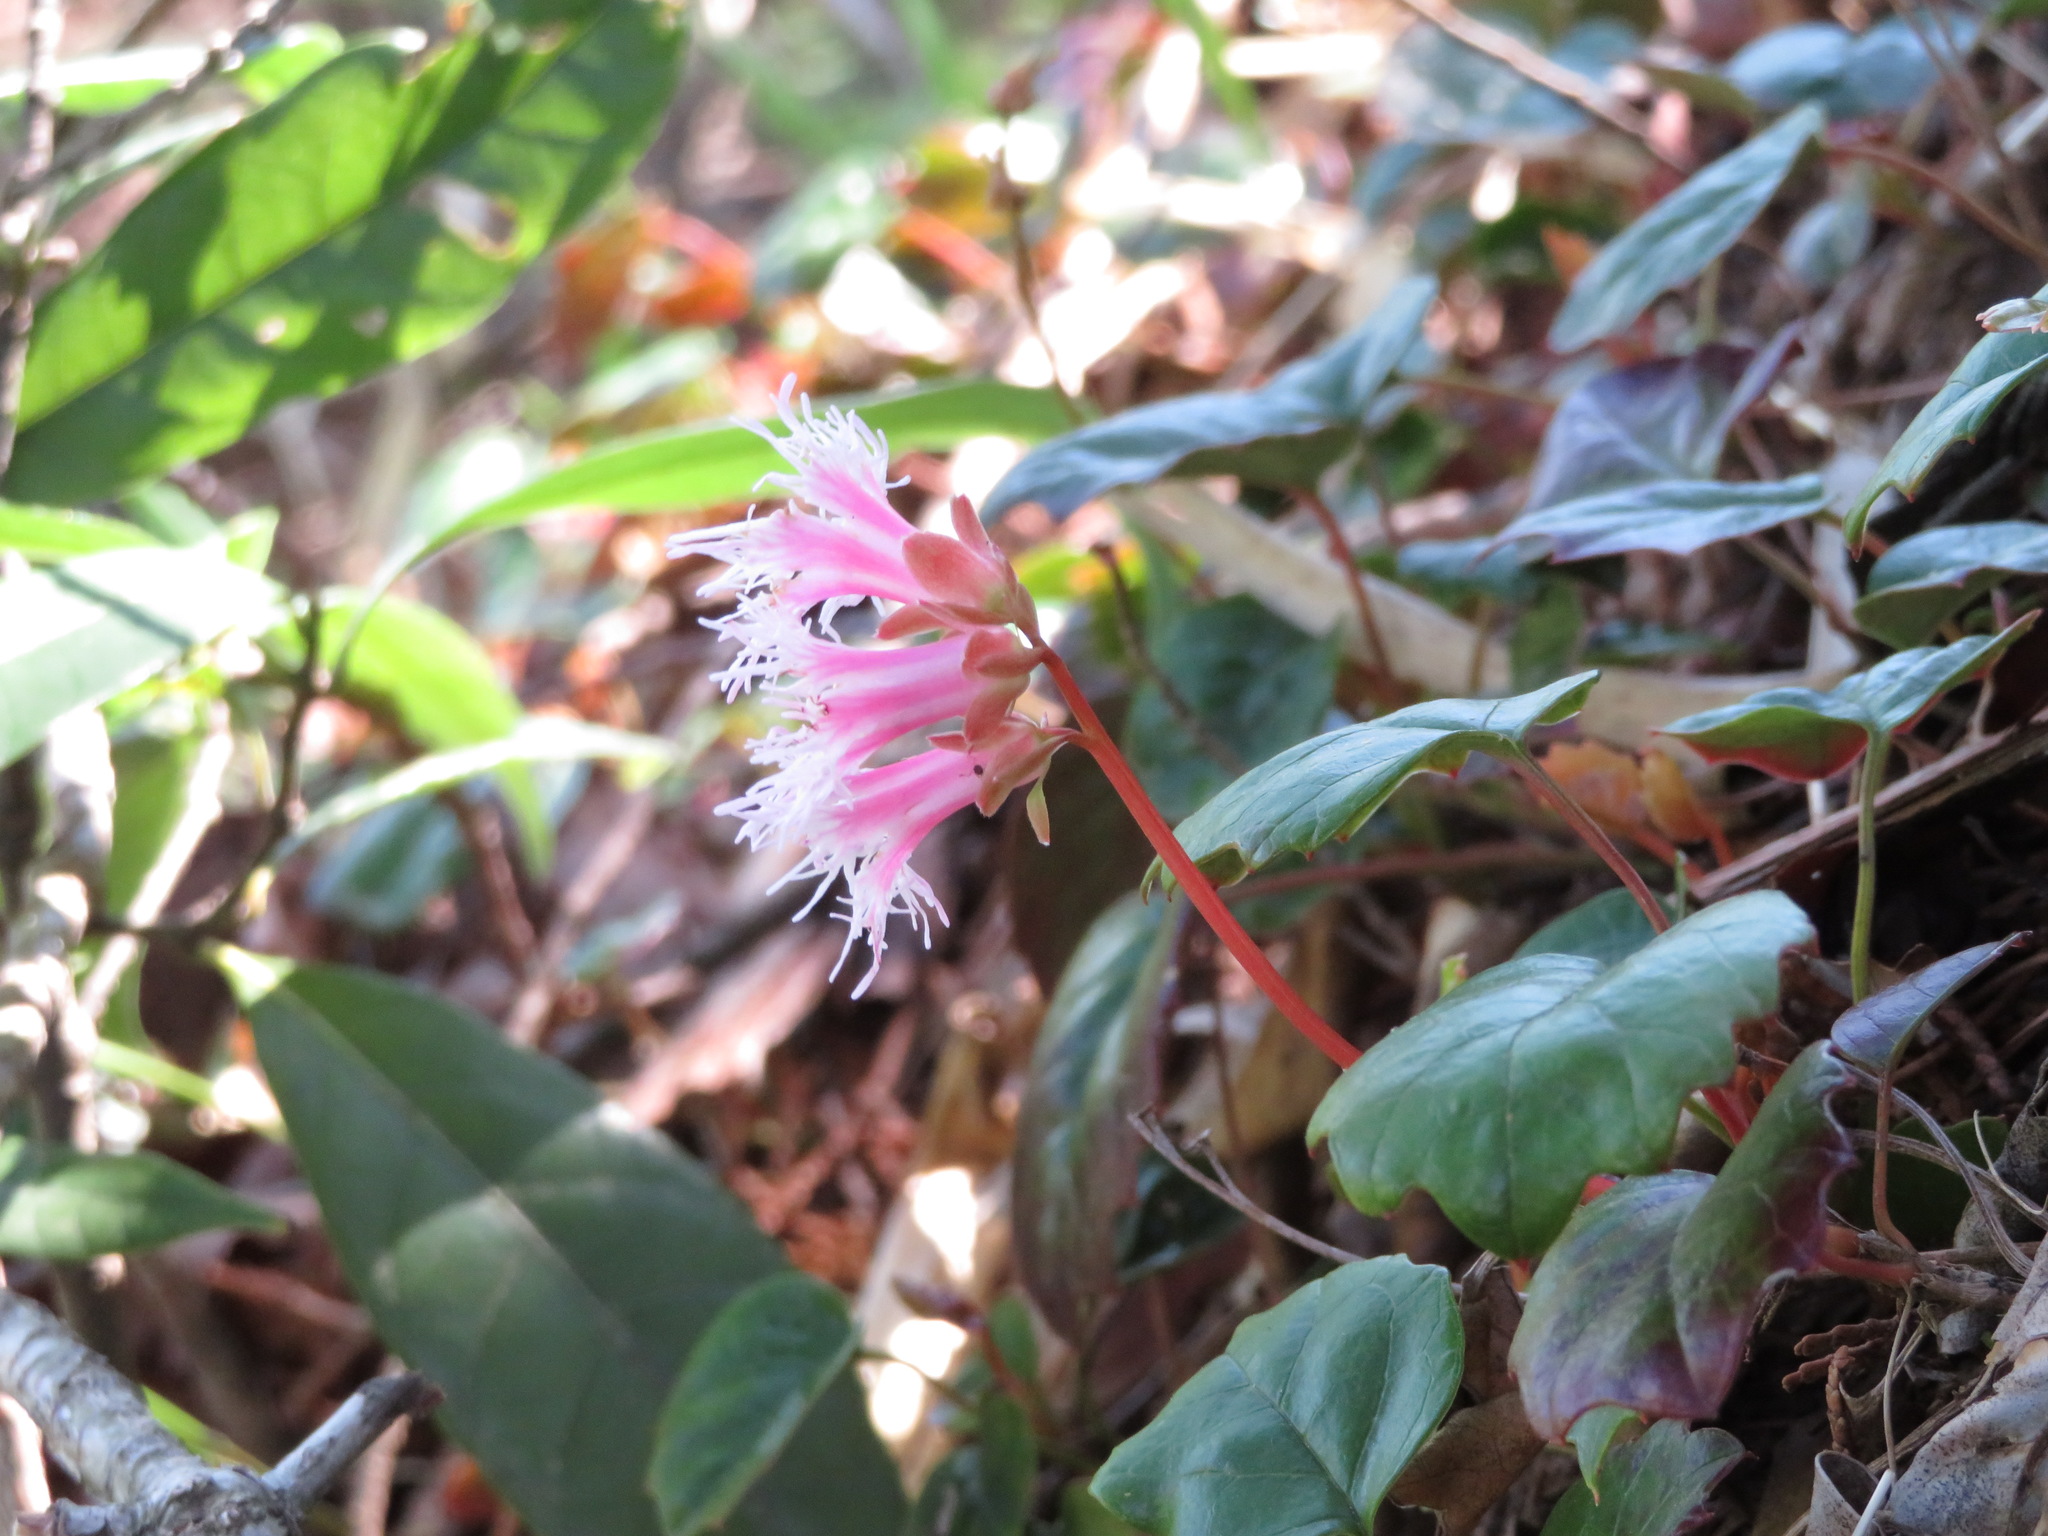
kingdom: Plantae
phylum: Tracheophyta
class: Magnoliopsida
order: Ericales
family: Diapensiaceae
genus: Schizocodon
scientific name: Schizocodon ilicifolius
